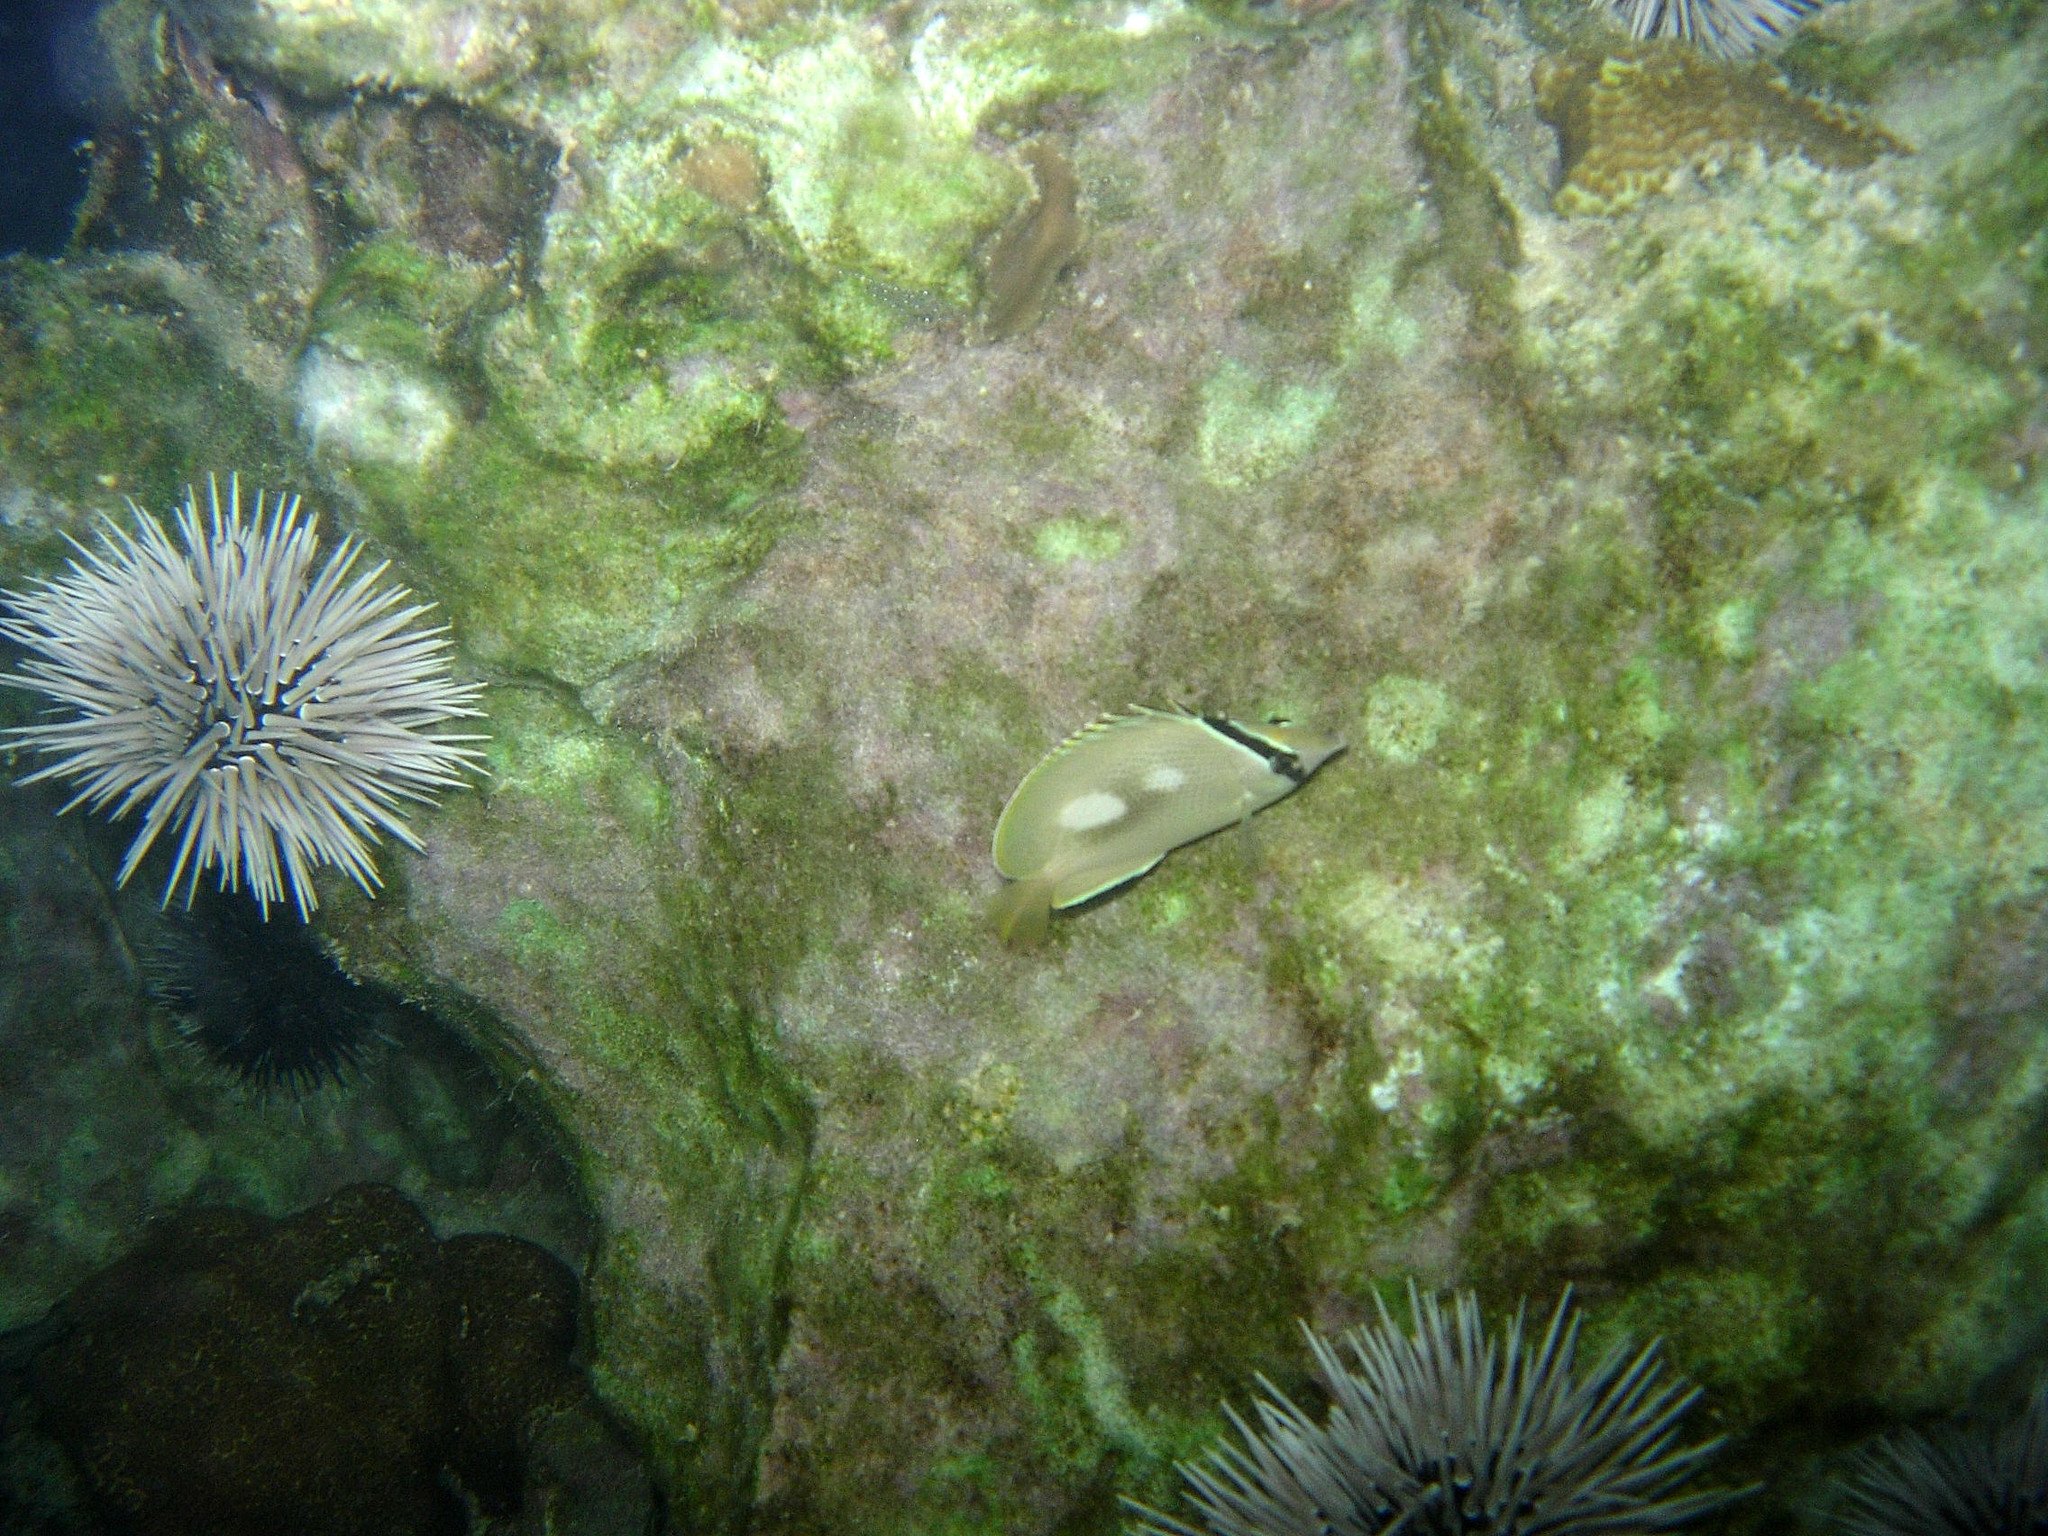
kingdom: Animalia
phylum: Chordata
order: Perciformes
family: Chaetodontidae
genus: Chaetodon
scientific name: Chaetodon citrinellus
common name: Speckled butterflyfish
